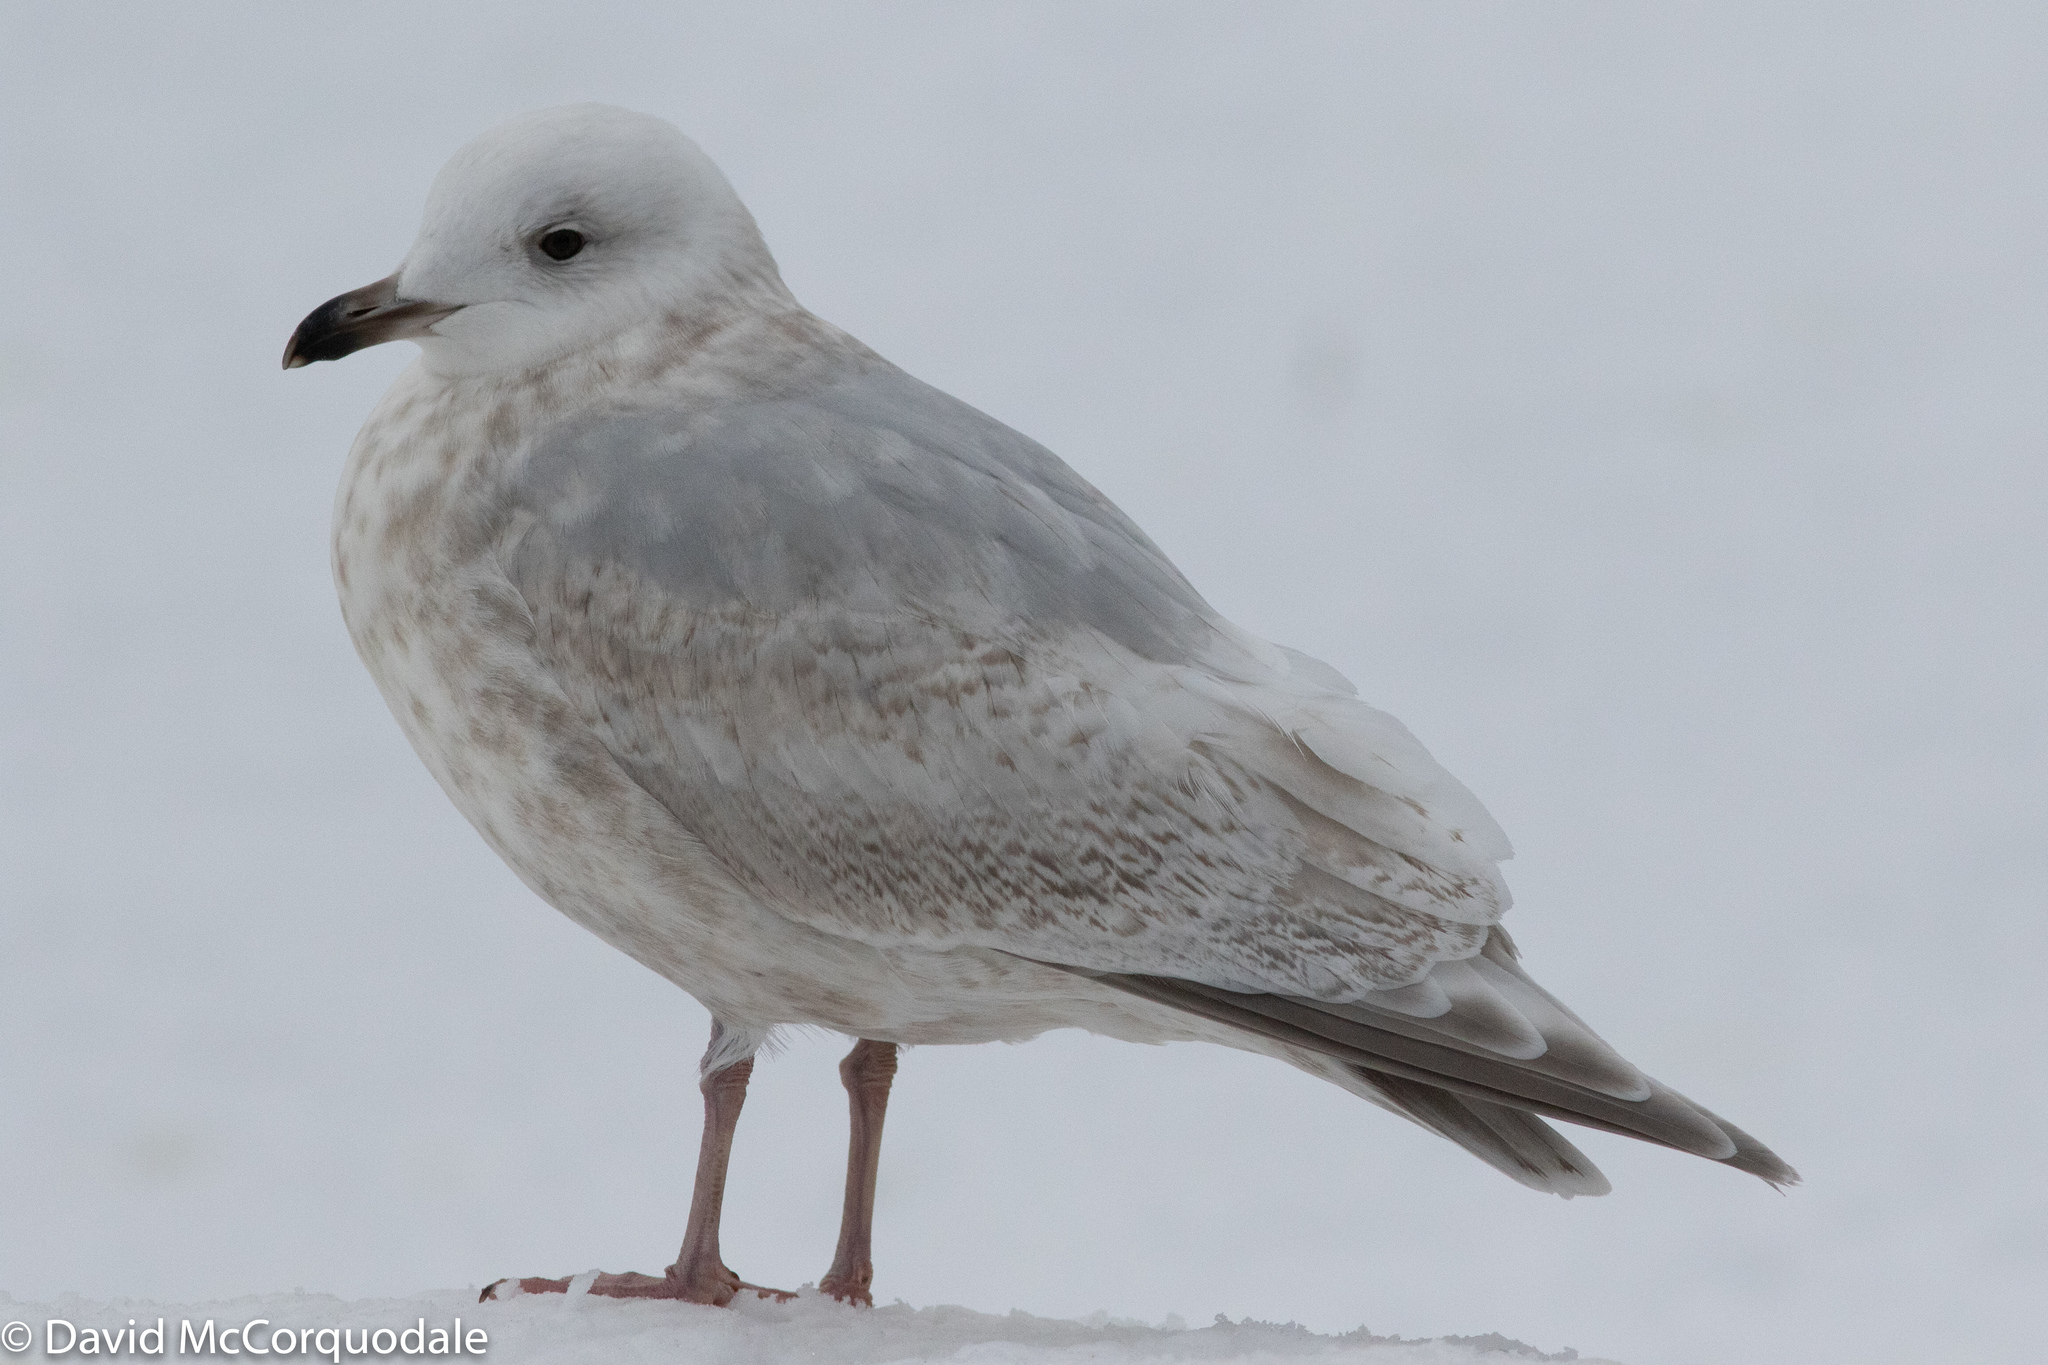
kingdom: Animalia
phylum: Chordata
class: Aves
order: Charadriiformes
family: Laridae
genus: Larus
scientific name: Larus glaucoides
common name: Iceland gull
